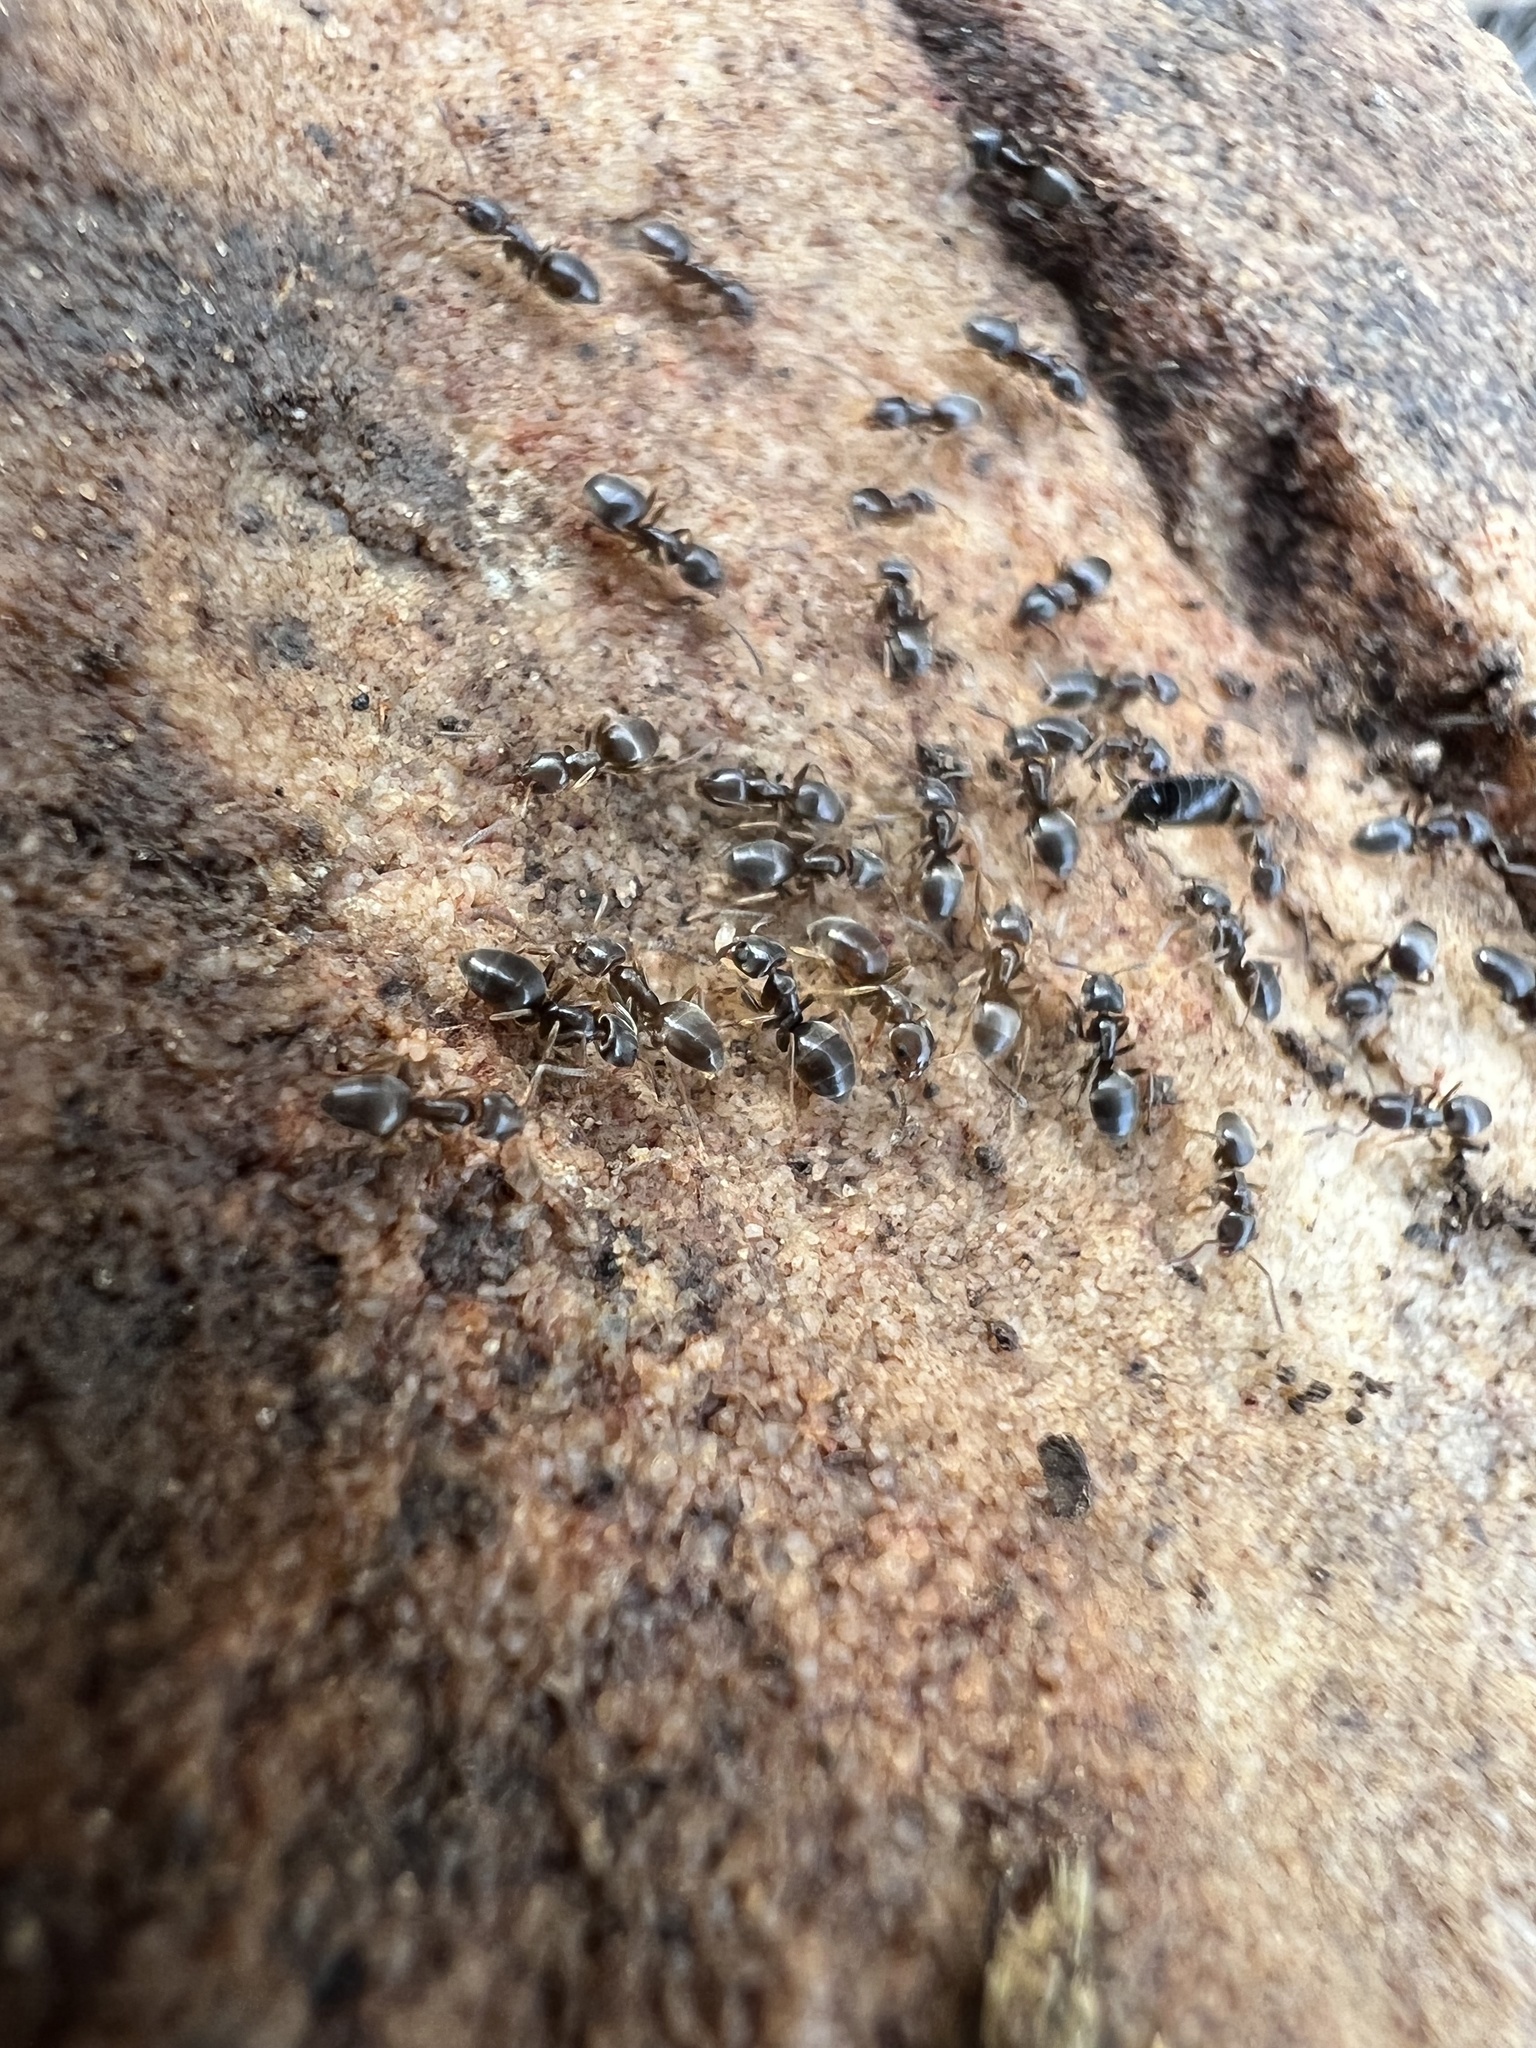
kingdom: Animalia
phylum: Arthropoda
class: Insecta
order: Hymenoptera
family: Formicidae
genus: Tapinoma
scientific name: Tapinoma sessile
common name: Odorous house ant
